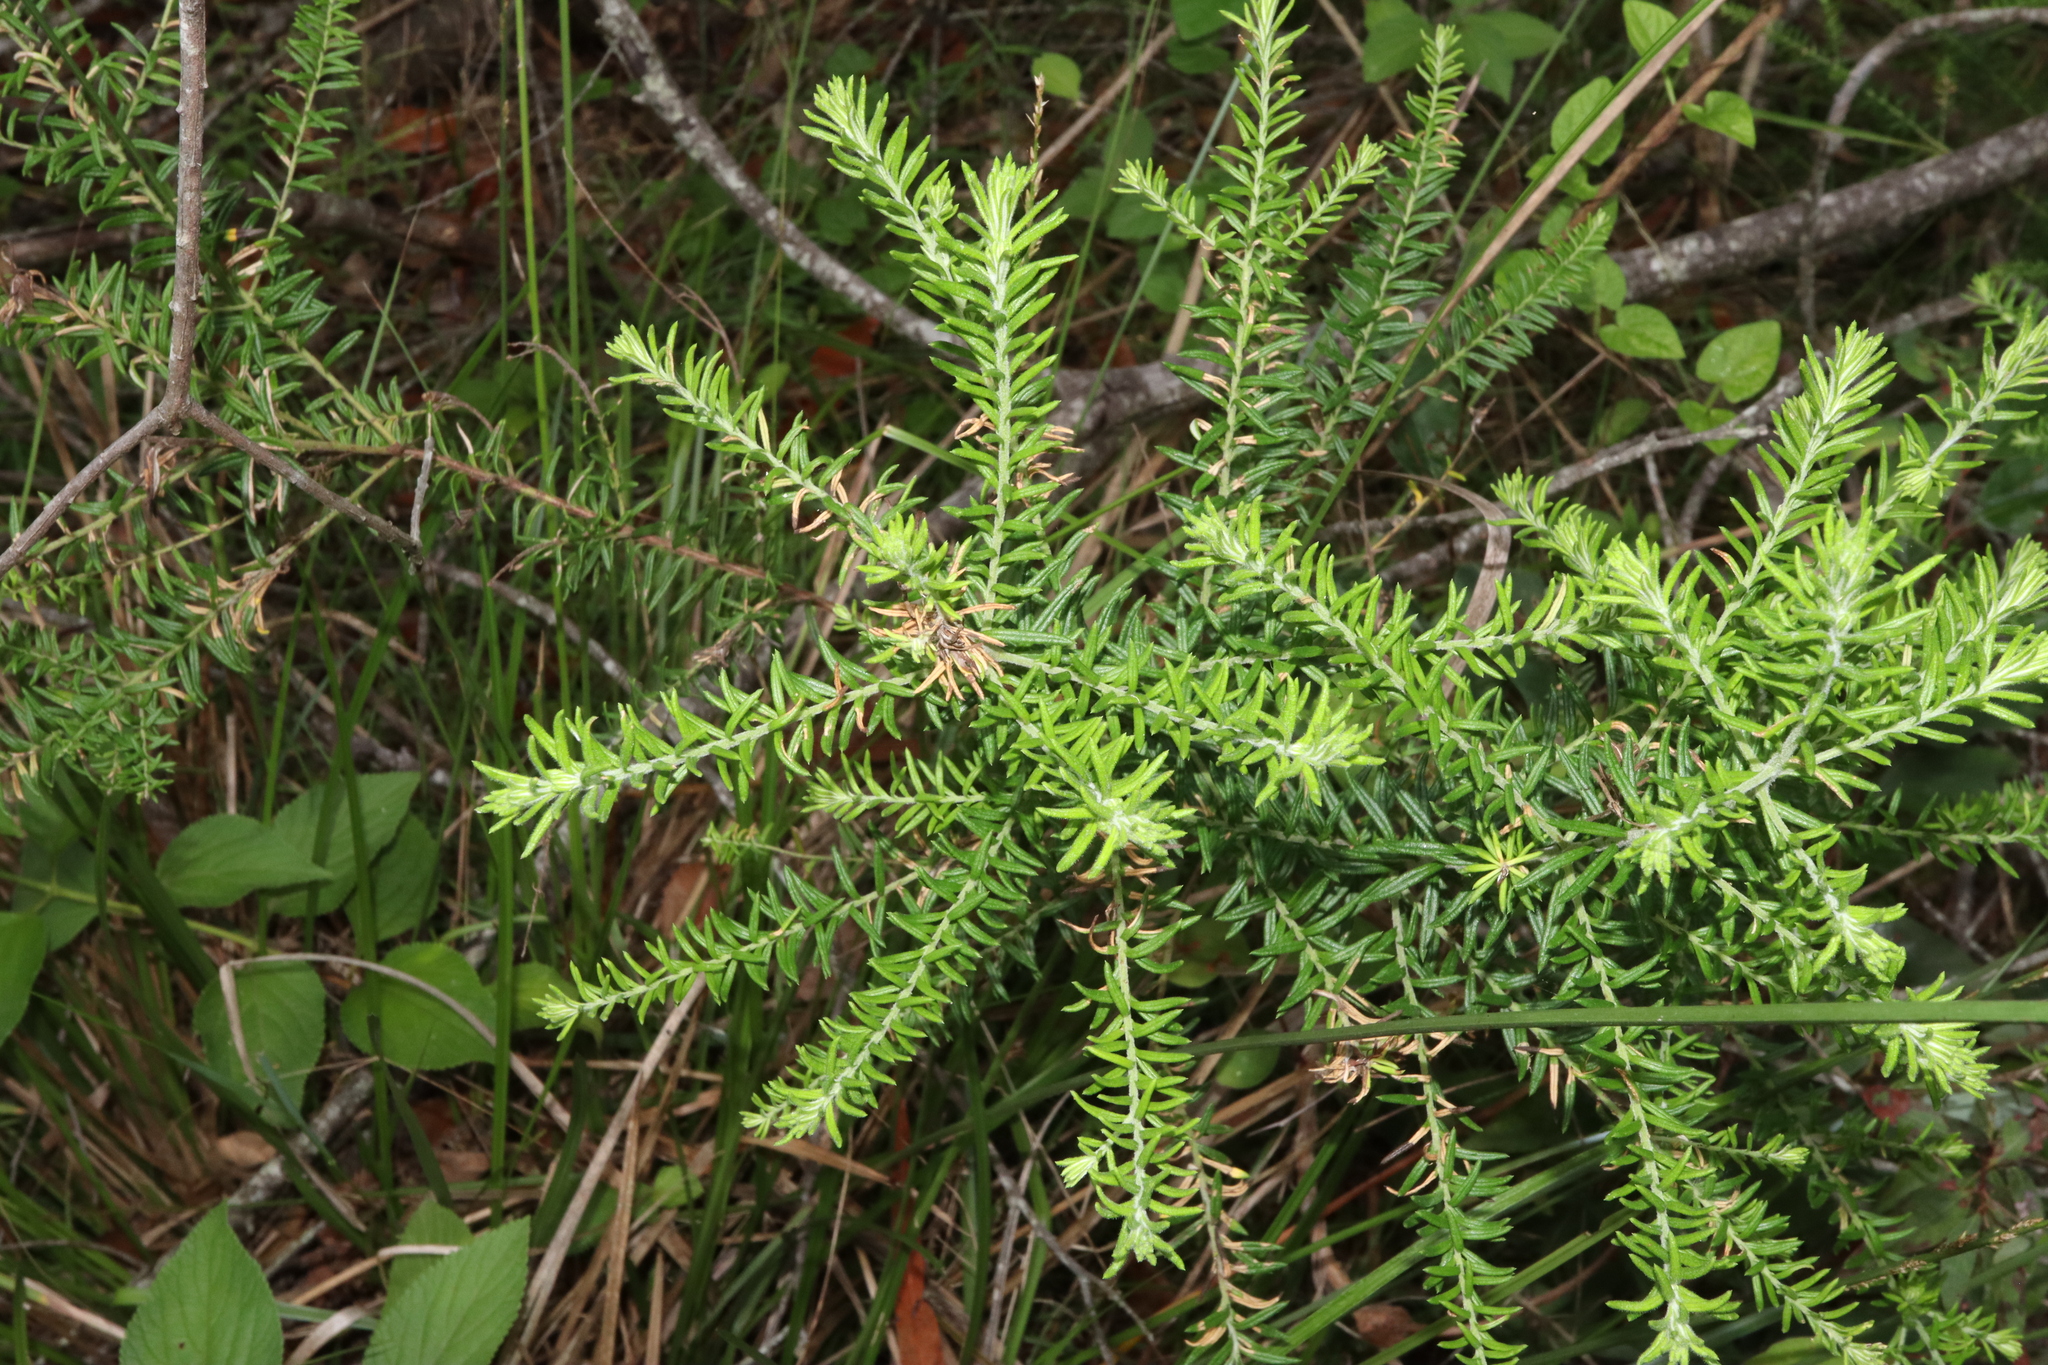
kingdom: Plantae
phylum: Tracheophyta
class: Magnoliopsida
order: Asterales
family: Asteraceae
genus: Ozothamnus
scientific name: Ozothamnus diosmifolius
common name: White-dogwood
